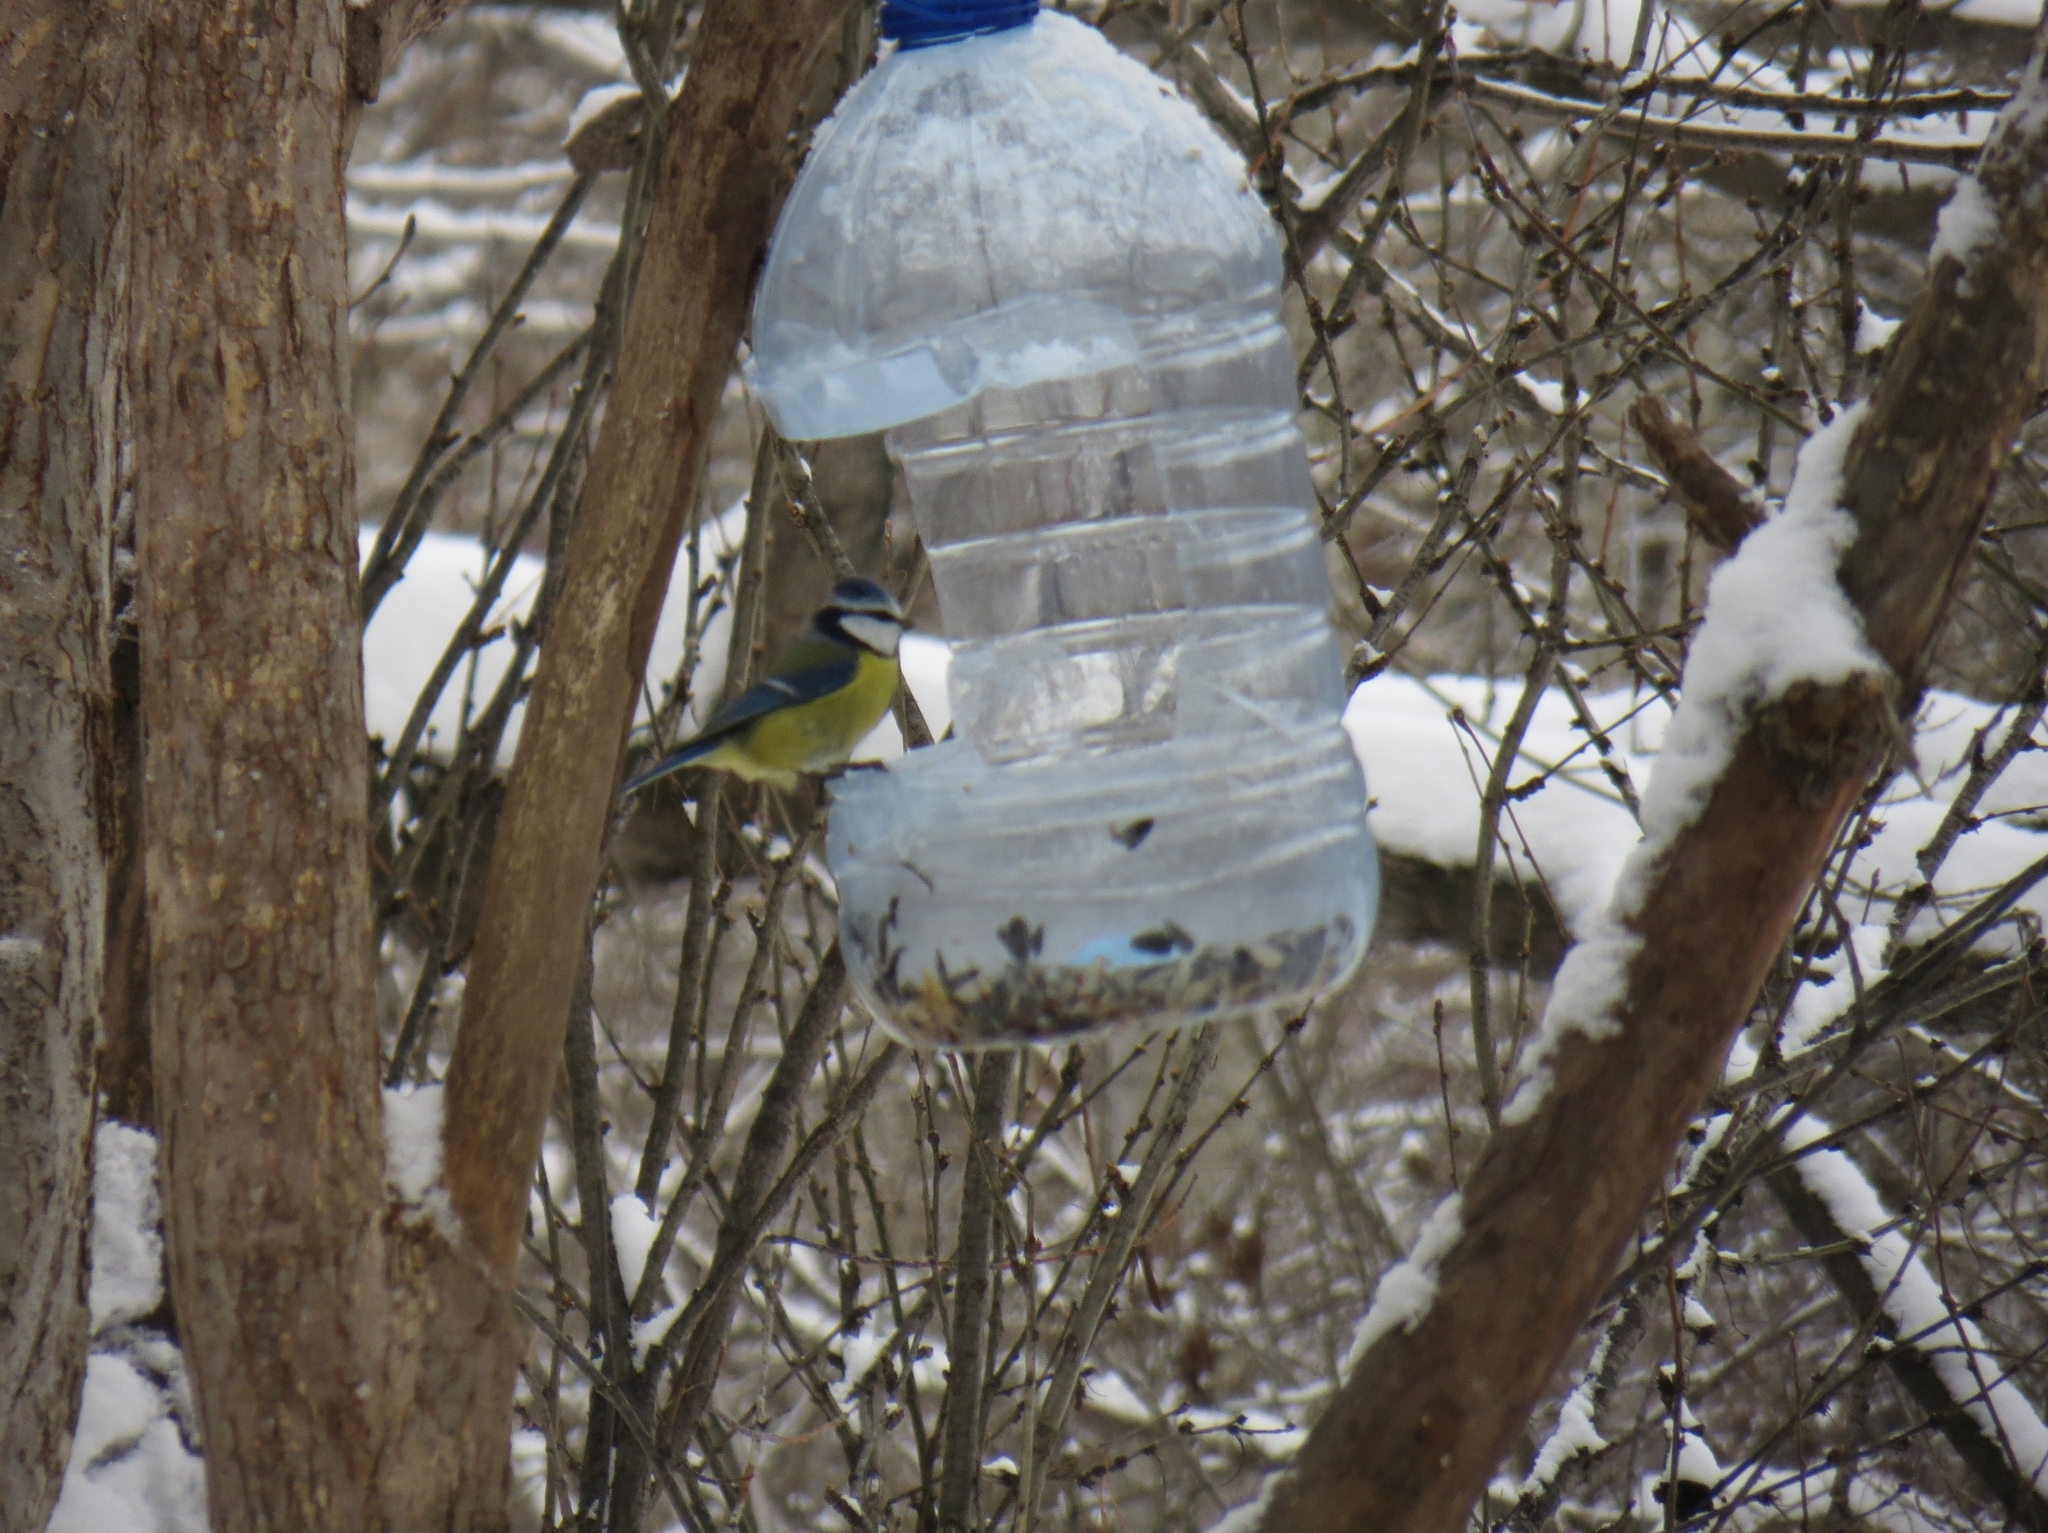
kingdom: Animalia
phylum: Chordata
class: Aves
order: Passeriformes
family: Paridae
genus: Cyanistes
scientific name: Cyanistes caeruleus
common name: Eurasian blue tit
